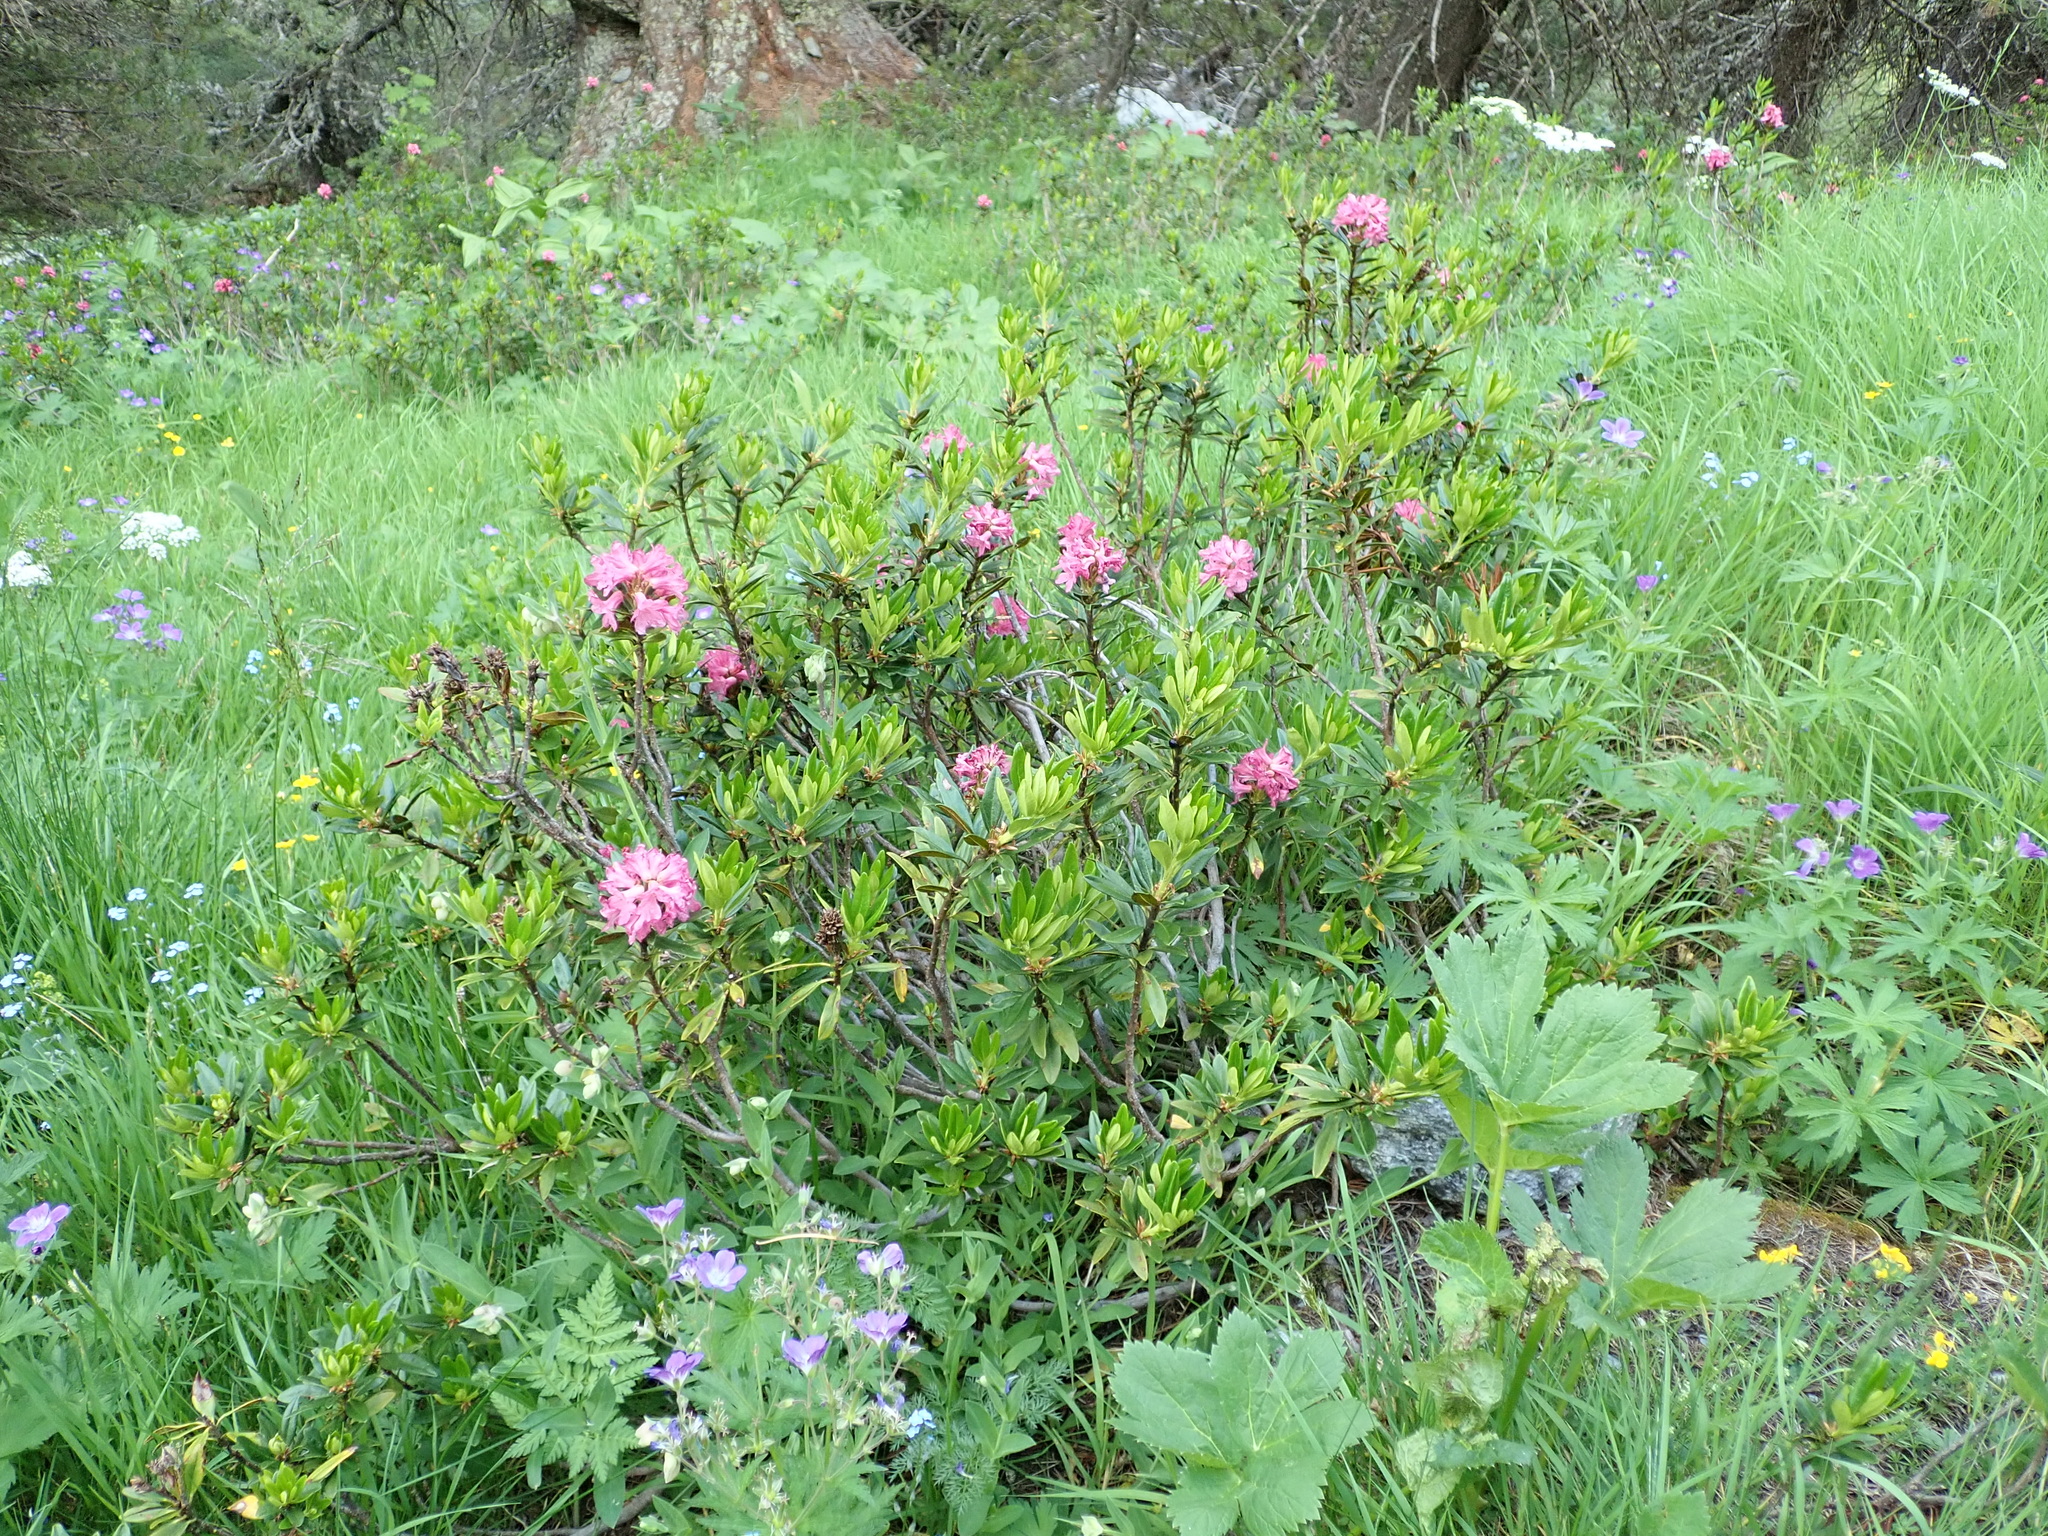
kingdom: Plantae
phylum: Tracheophyta
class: Magnoliopsida
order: Ericales
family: Ericaceae
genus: Rhododendron
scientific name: Rhododendron ferrugineum
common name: Alpenrose
